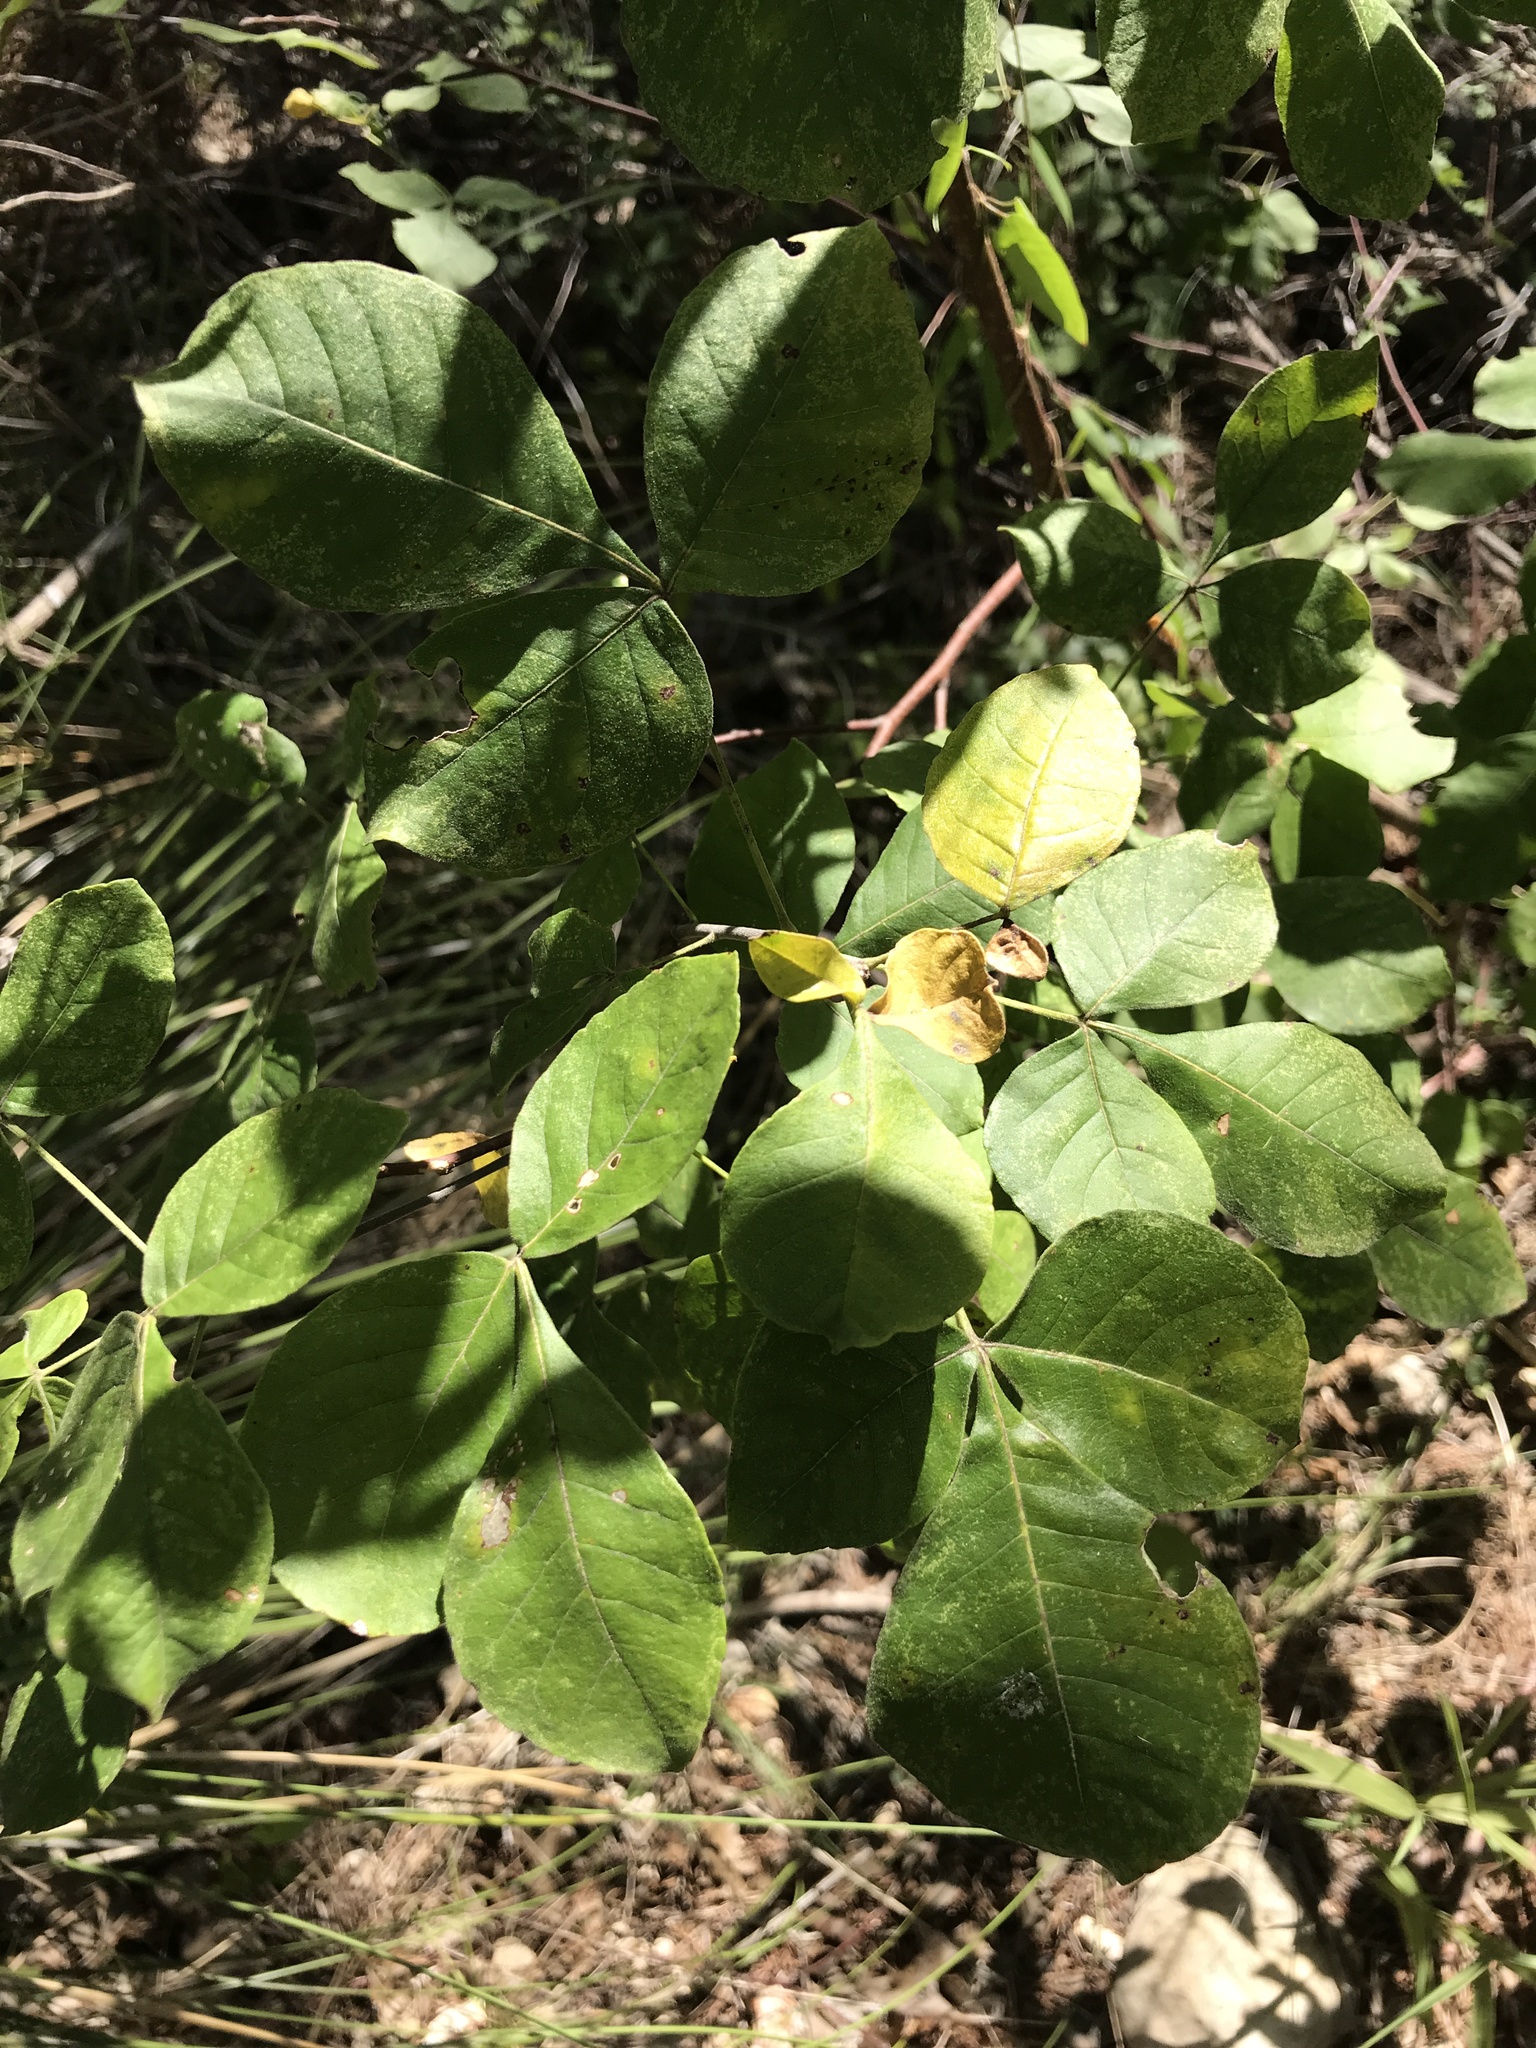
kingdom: Plantae
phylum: Tracheophyta
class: Magnoliopsida
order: Sapindales
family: Rutaceae
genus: Ptelea
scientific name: Ptelea trifoliata
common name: Common hop-tree
